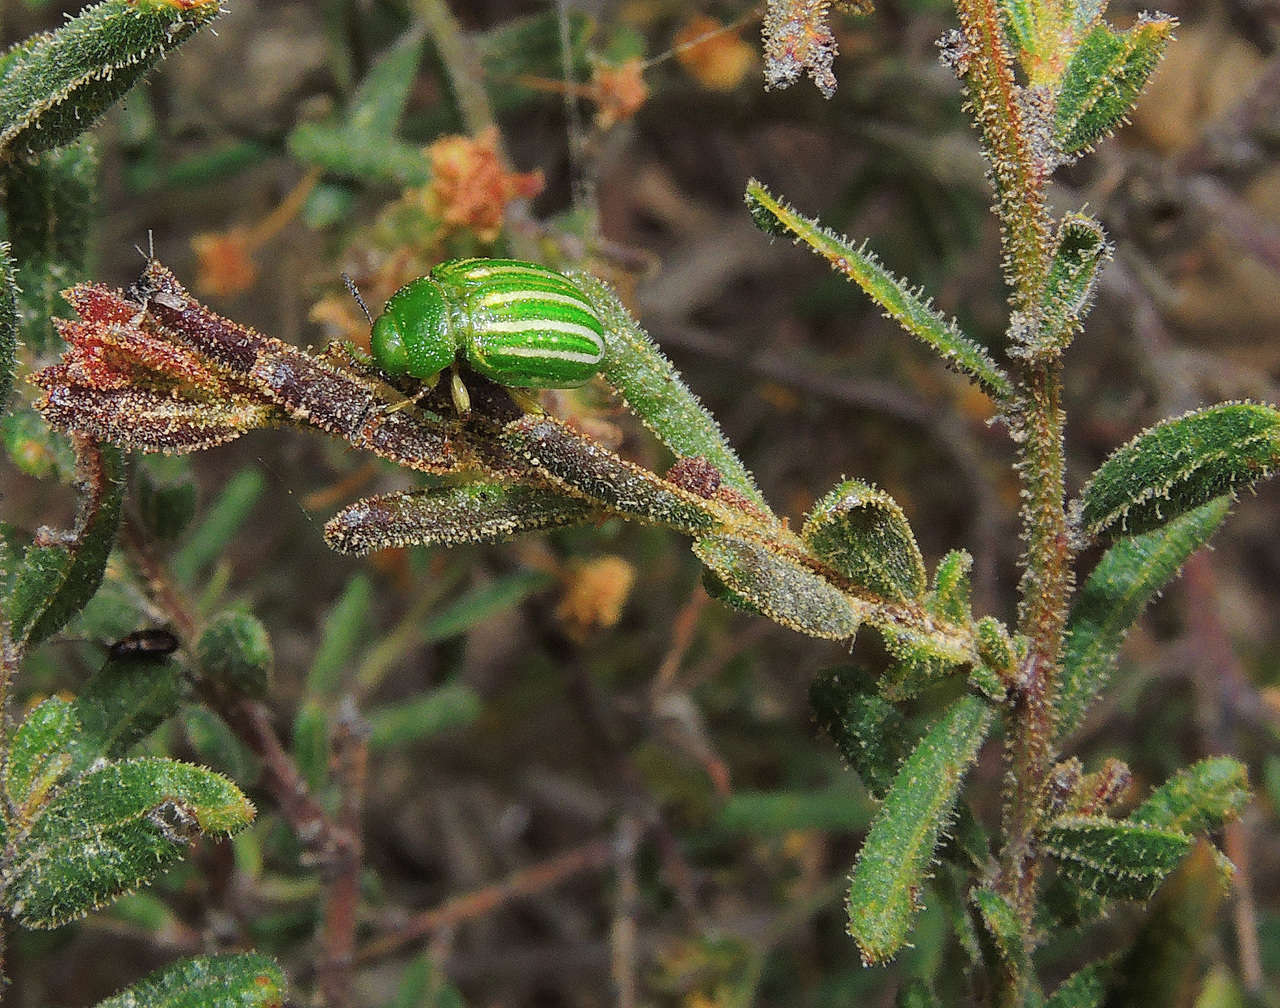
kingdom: Animalia
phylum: Arthropoda
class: Insecta
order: Coleoptera
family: Chrysomelidae
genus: Calomela
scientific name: Calomela
